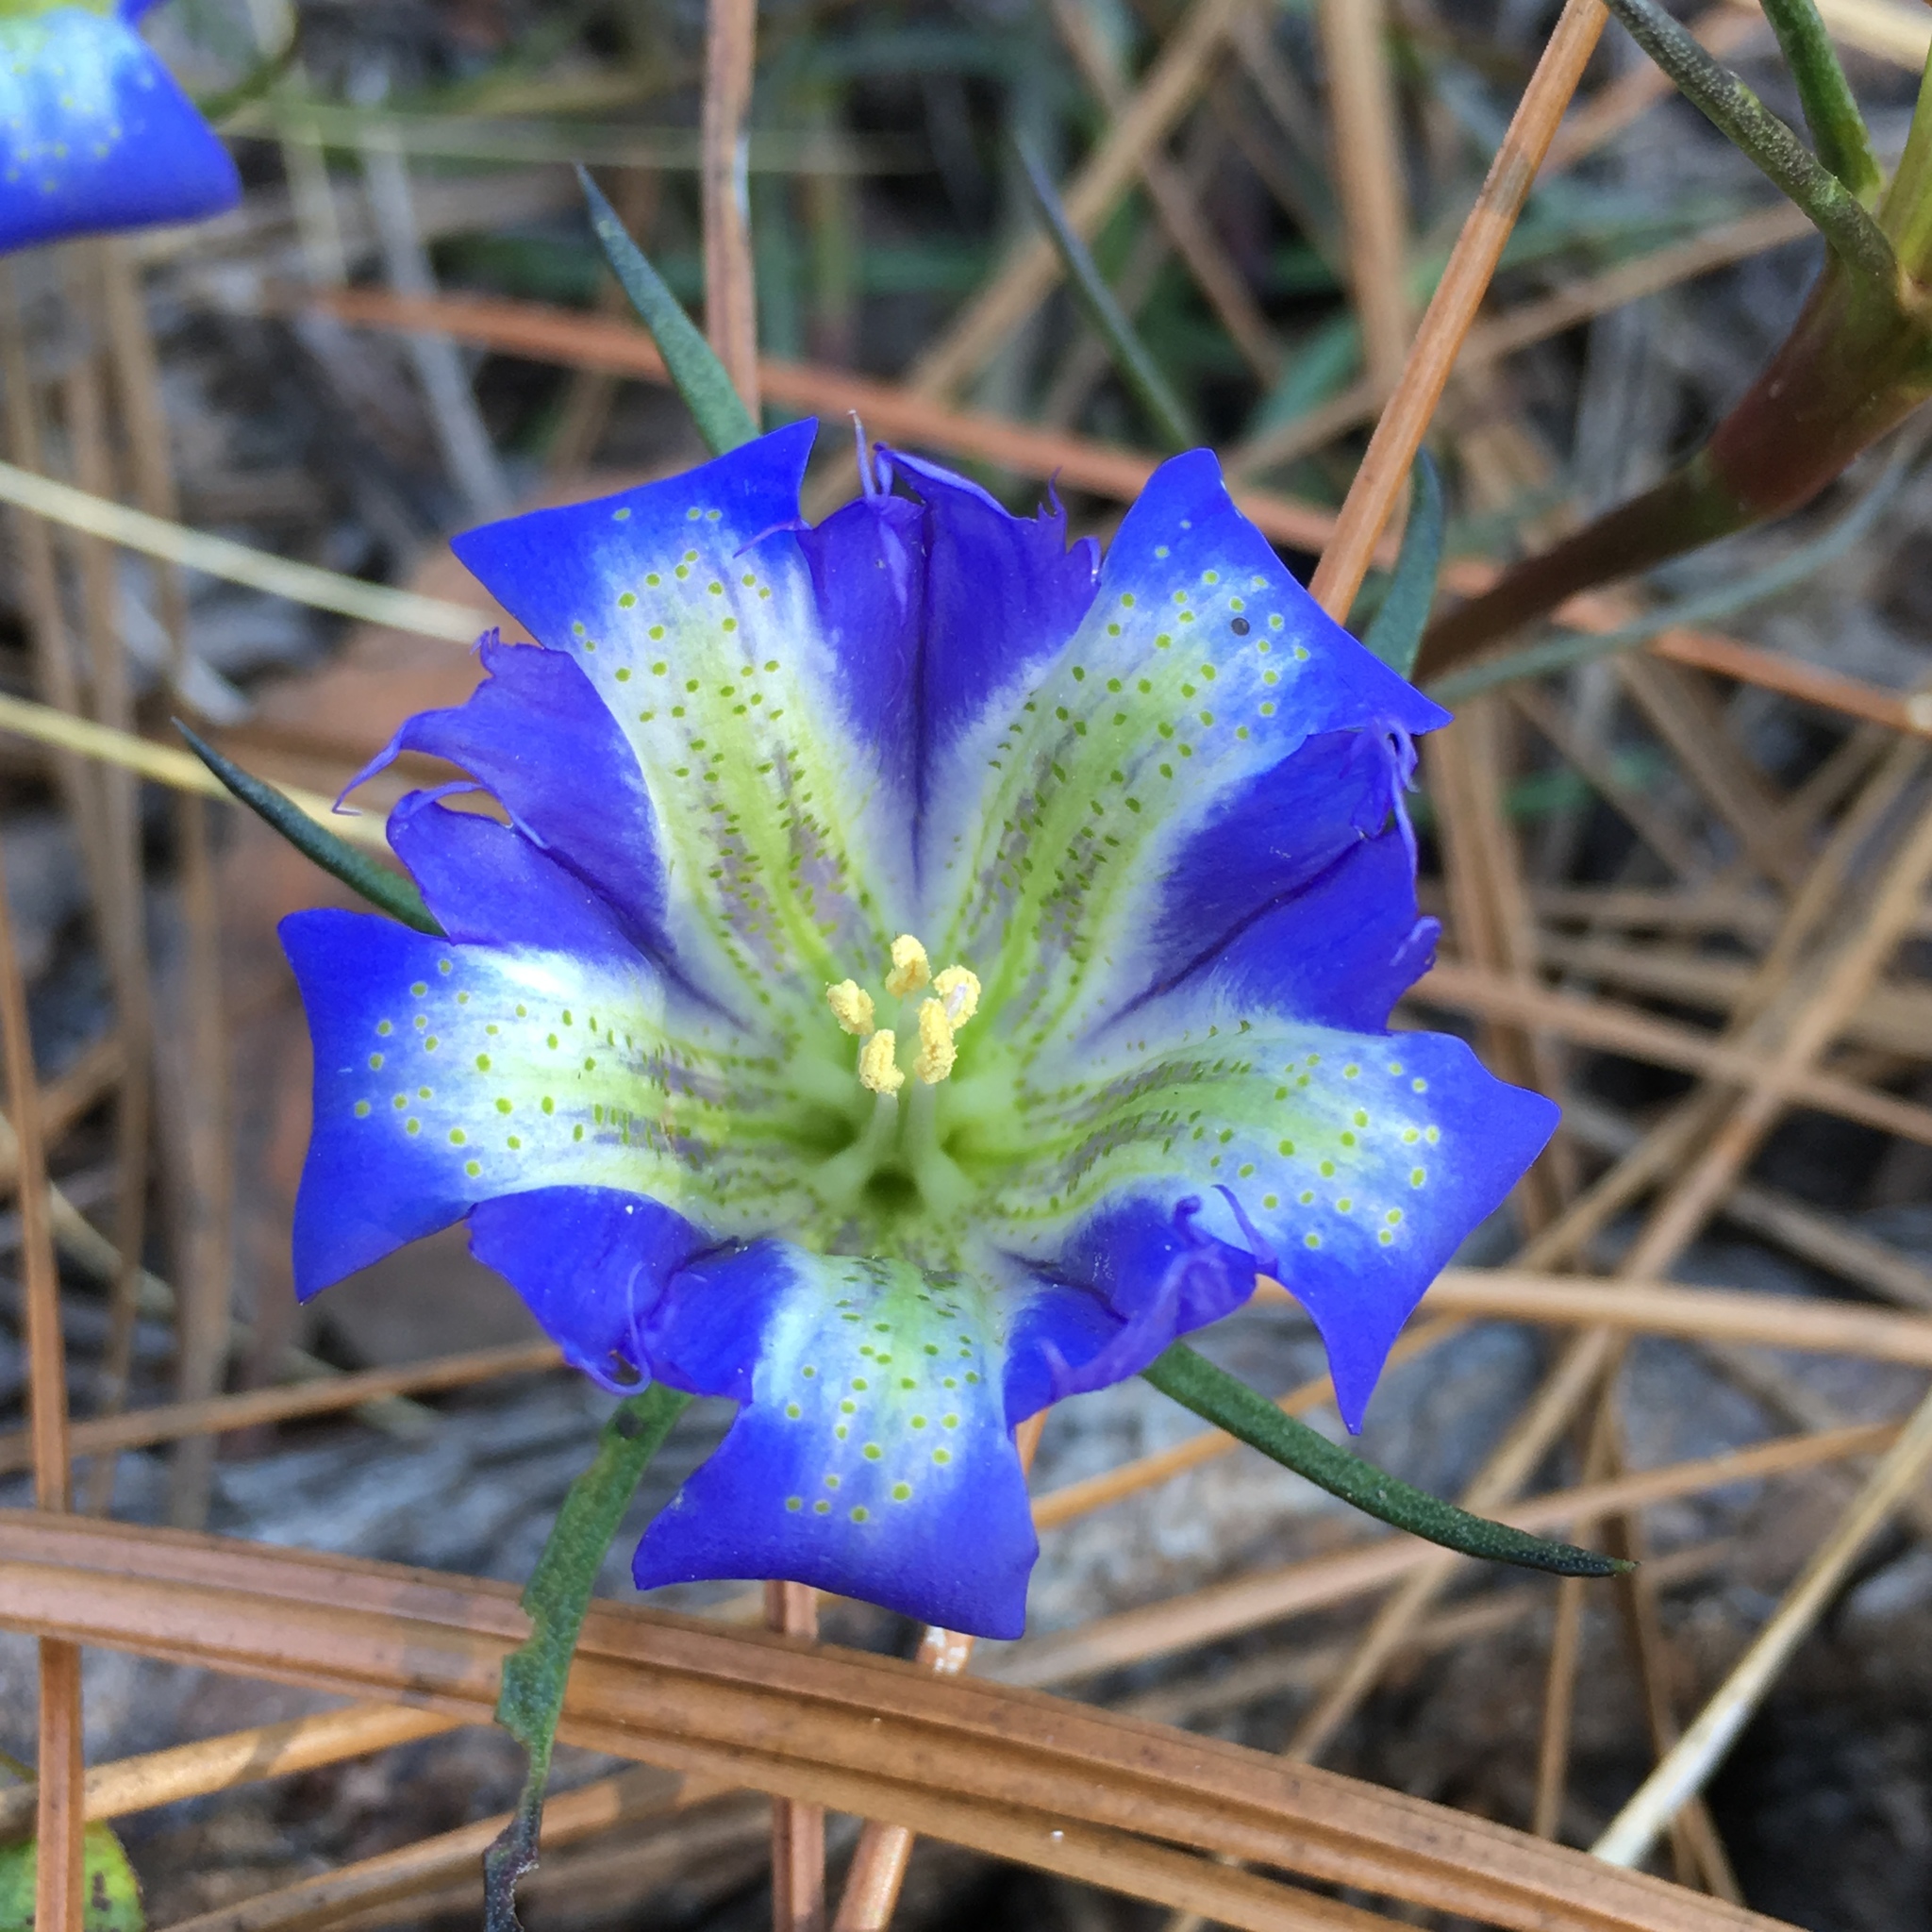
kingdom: Plantae
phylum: Tracheophyta
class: Magnoliopsida
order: Gentianales
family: Gentianaceae
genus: Gentiana
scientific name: Gentiana autumnalis
